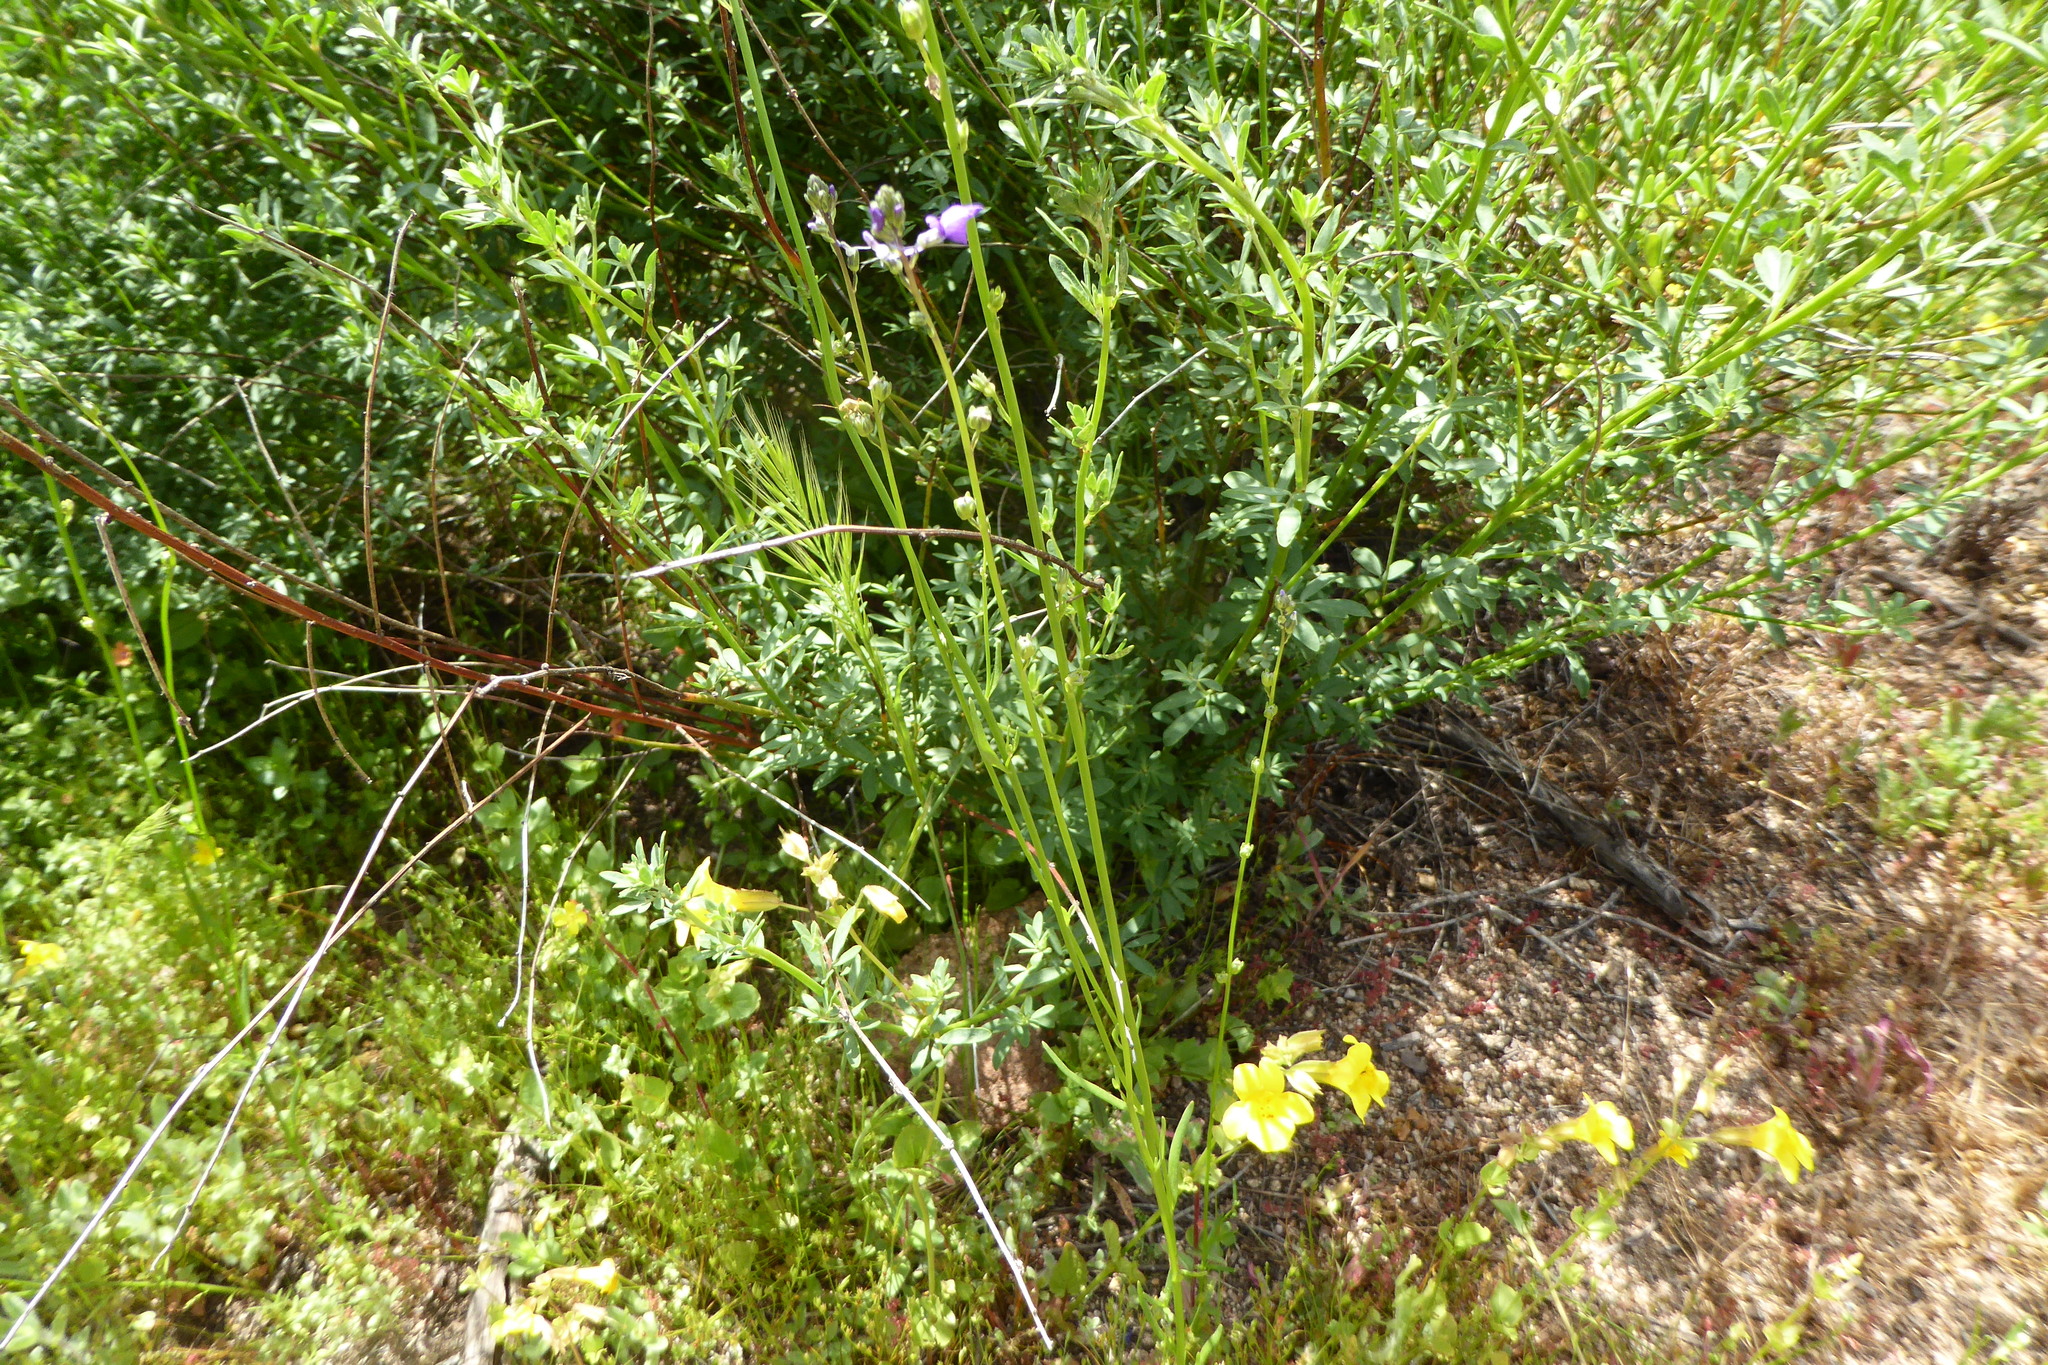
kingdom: Plantae
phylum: Tracheophyta
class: Magnoliopsida
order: Lamiales
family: Plantaginaceae
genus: Nuttallanthus
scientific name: Nuttallanthus texanus
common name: Texas toadflax
